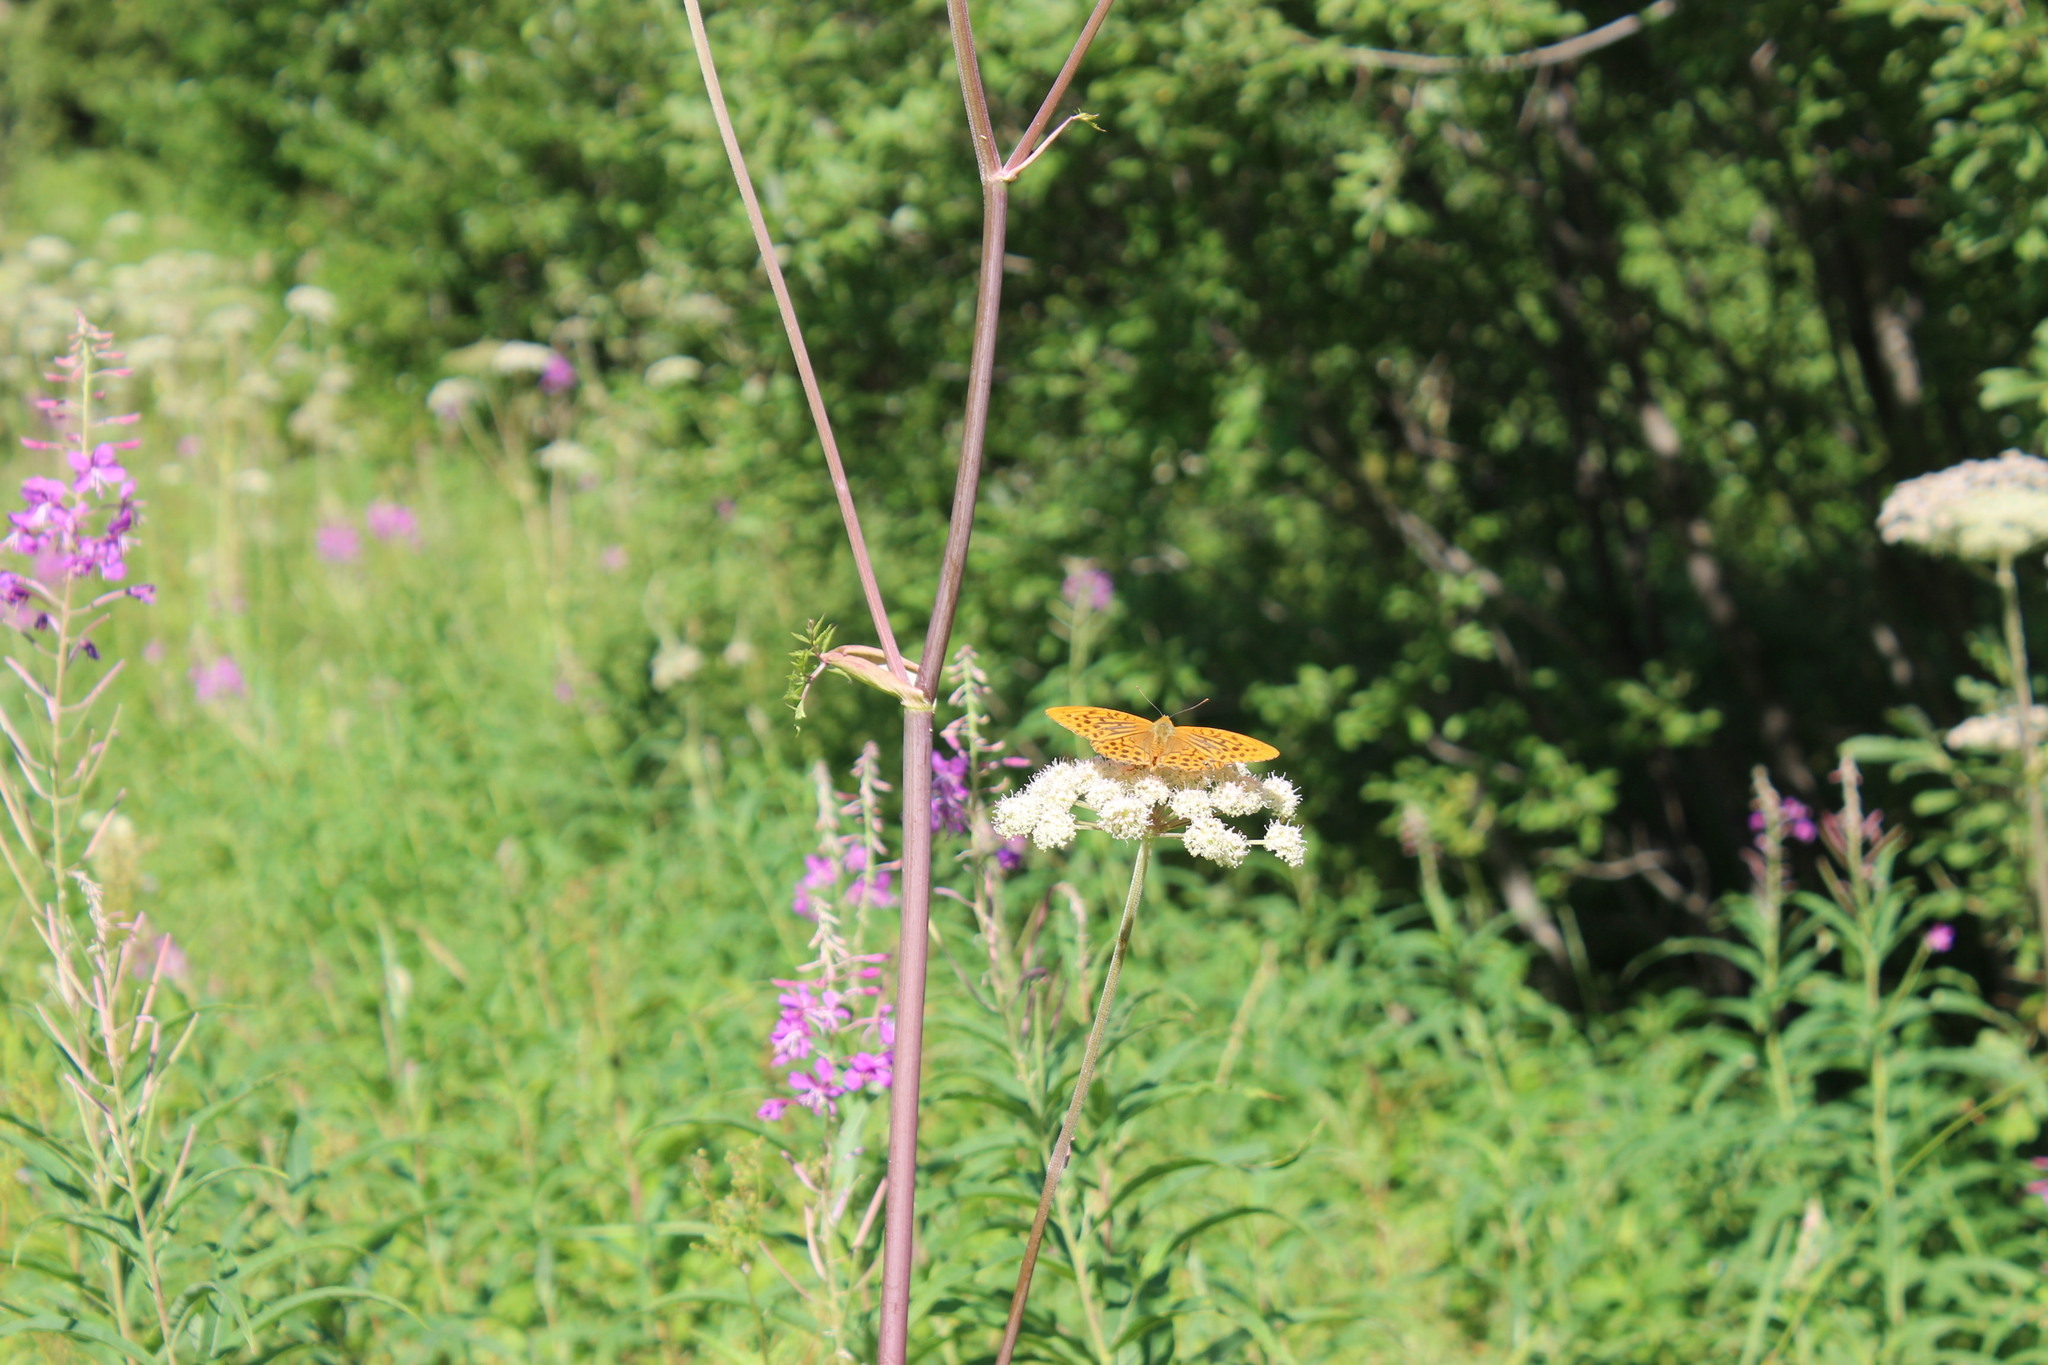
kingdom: Animalia
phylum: Arthropoda
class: Insecta
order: Lepidoptera
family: Nymphalidae
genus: Argynnis
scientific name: Argynnis paphia
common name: Silver-washed fritillary
